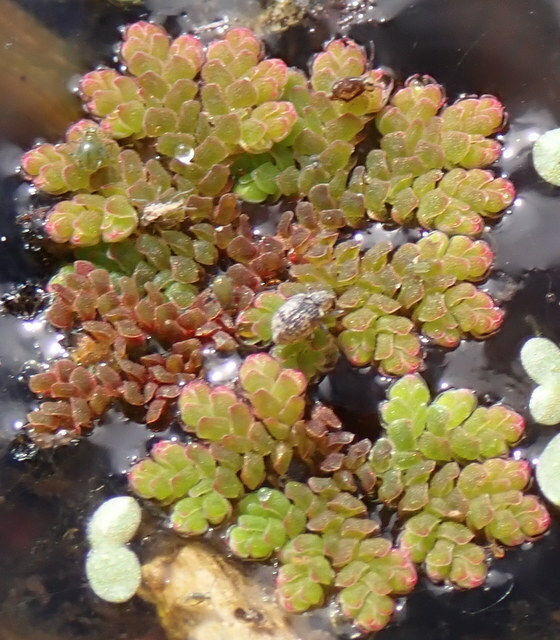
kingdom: Plantae
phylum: Tracheophyta
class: Polypodiopsida
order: Salviniales
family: Salviniaceae
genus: Azolla
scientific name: Azolla caroliniana
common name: Carolina mosquitofern
